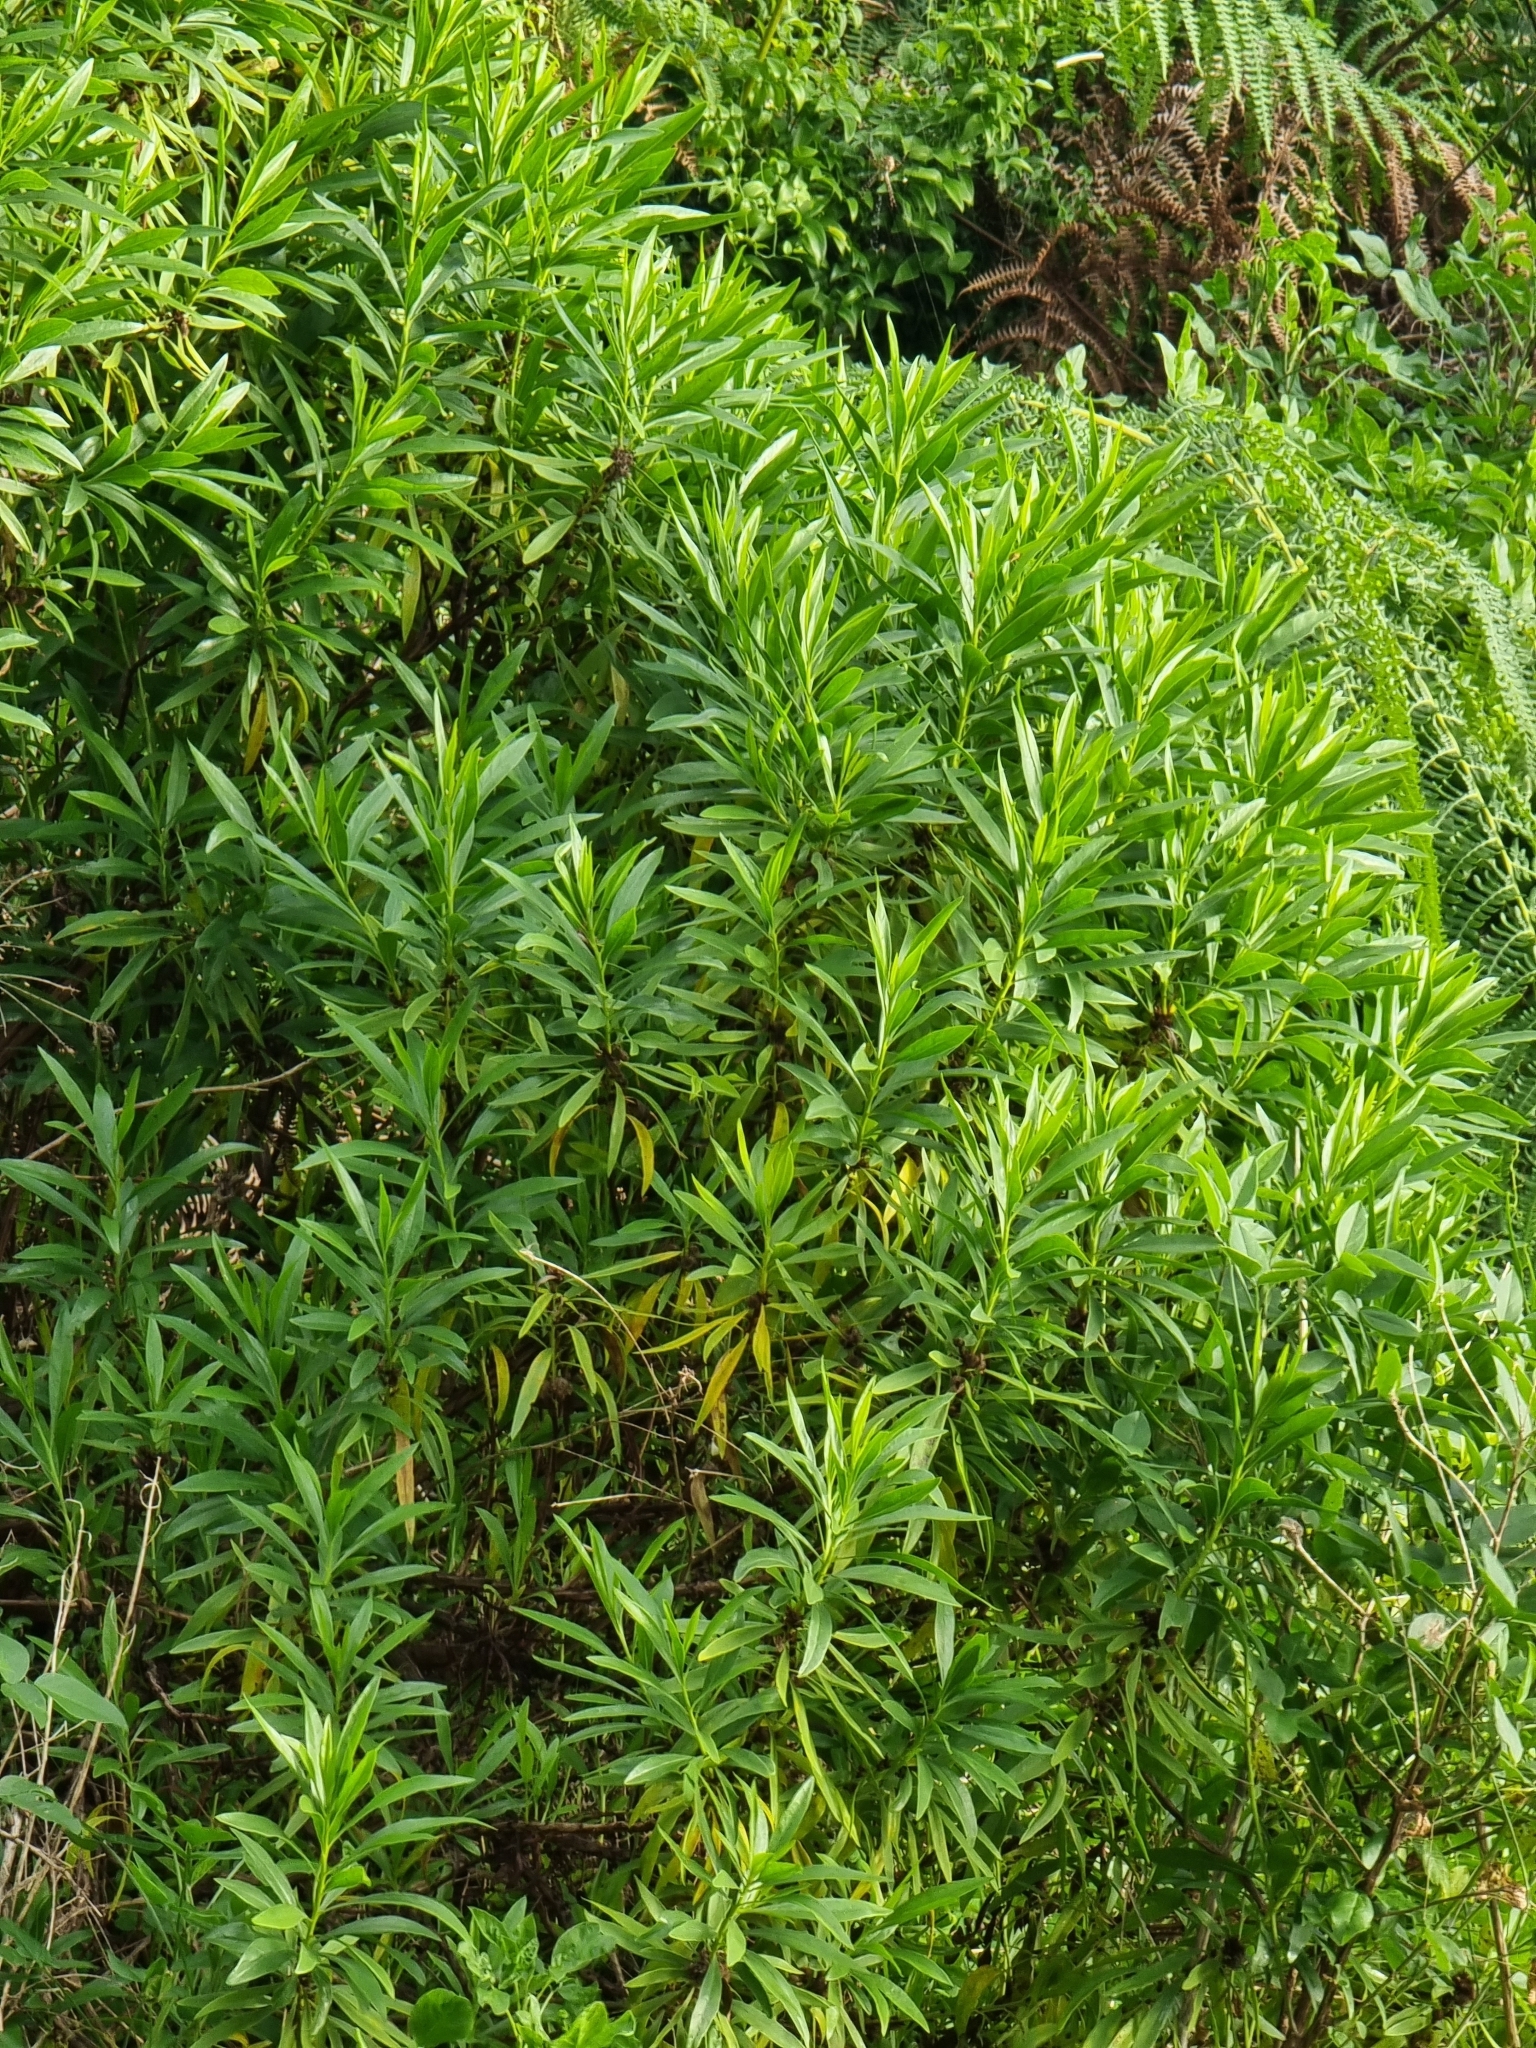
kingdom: Plantae
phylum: Tracheophyta
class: Magnoliopsida
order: Lamiales
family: Plantaginaceae
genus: Globularia
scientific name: Globularia salicina
